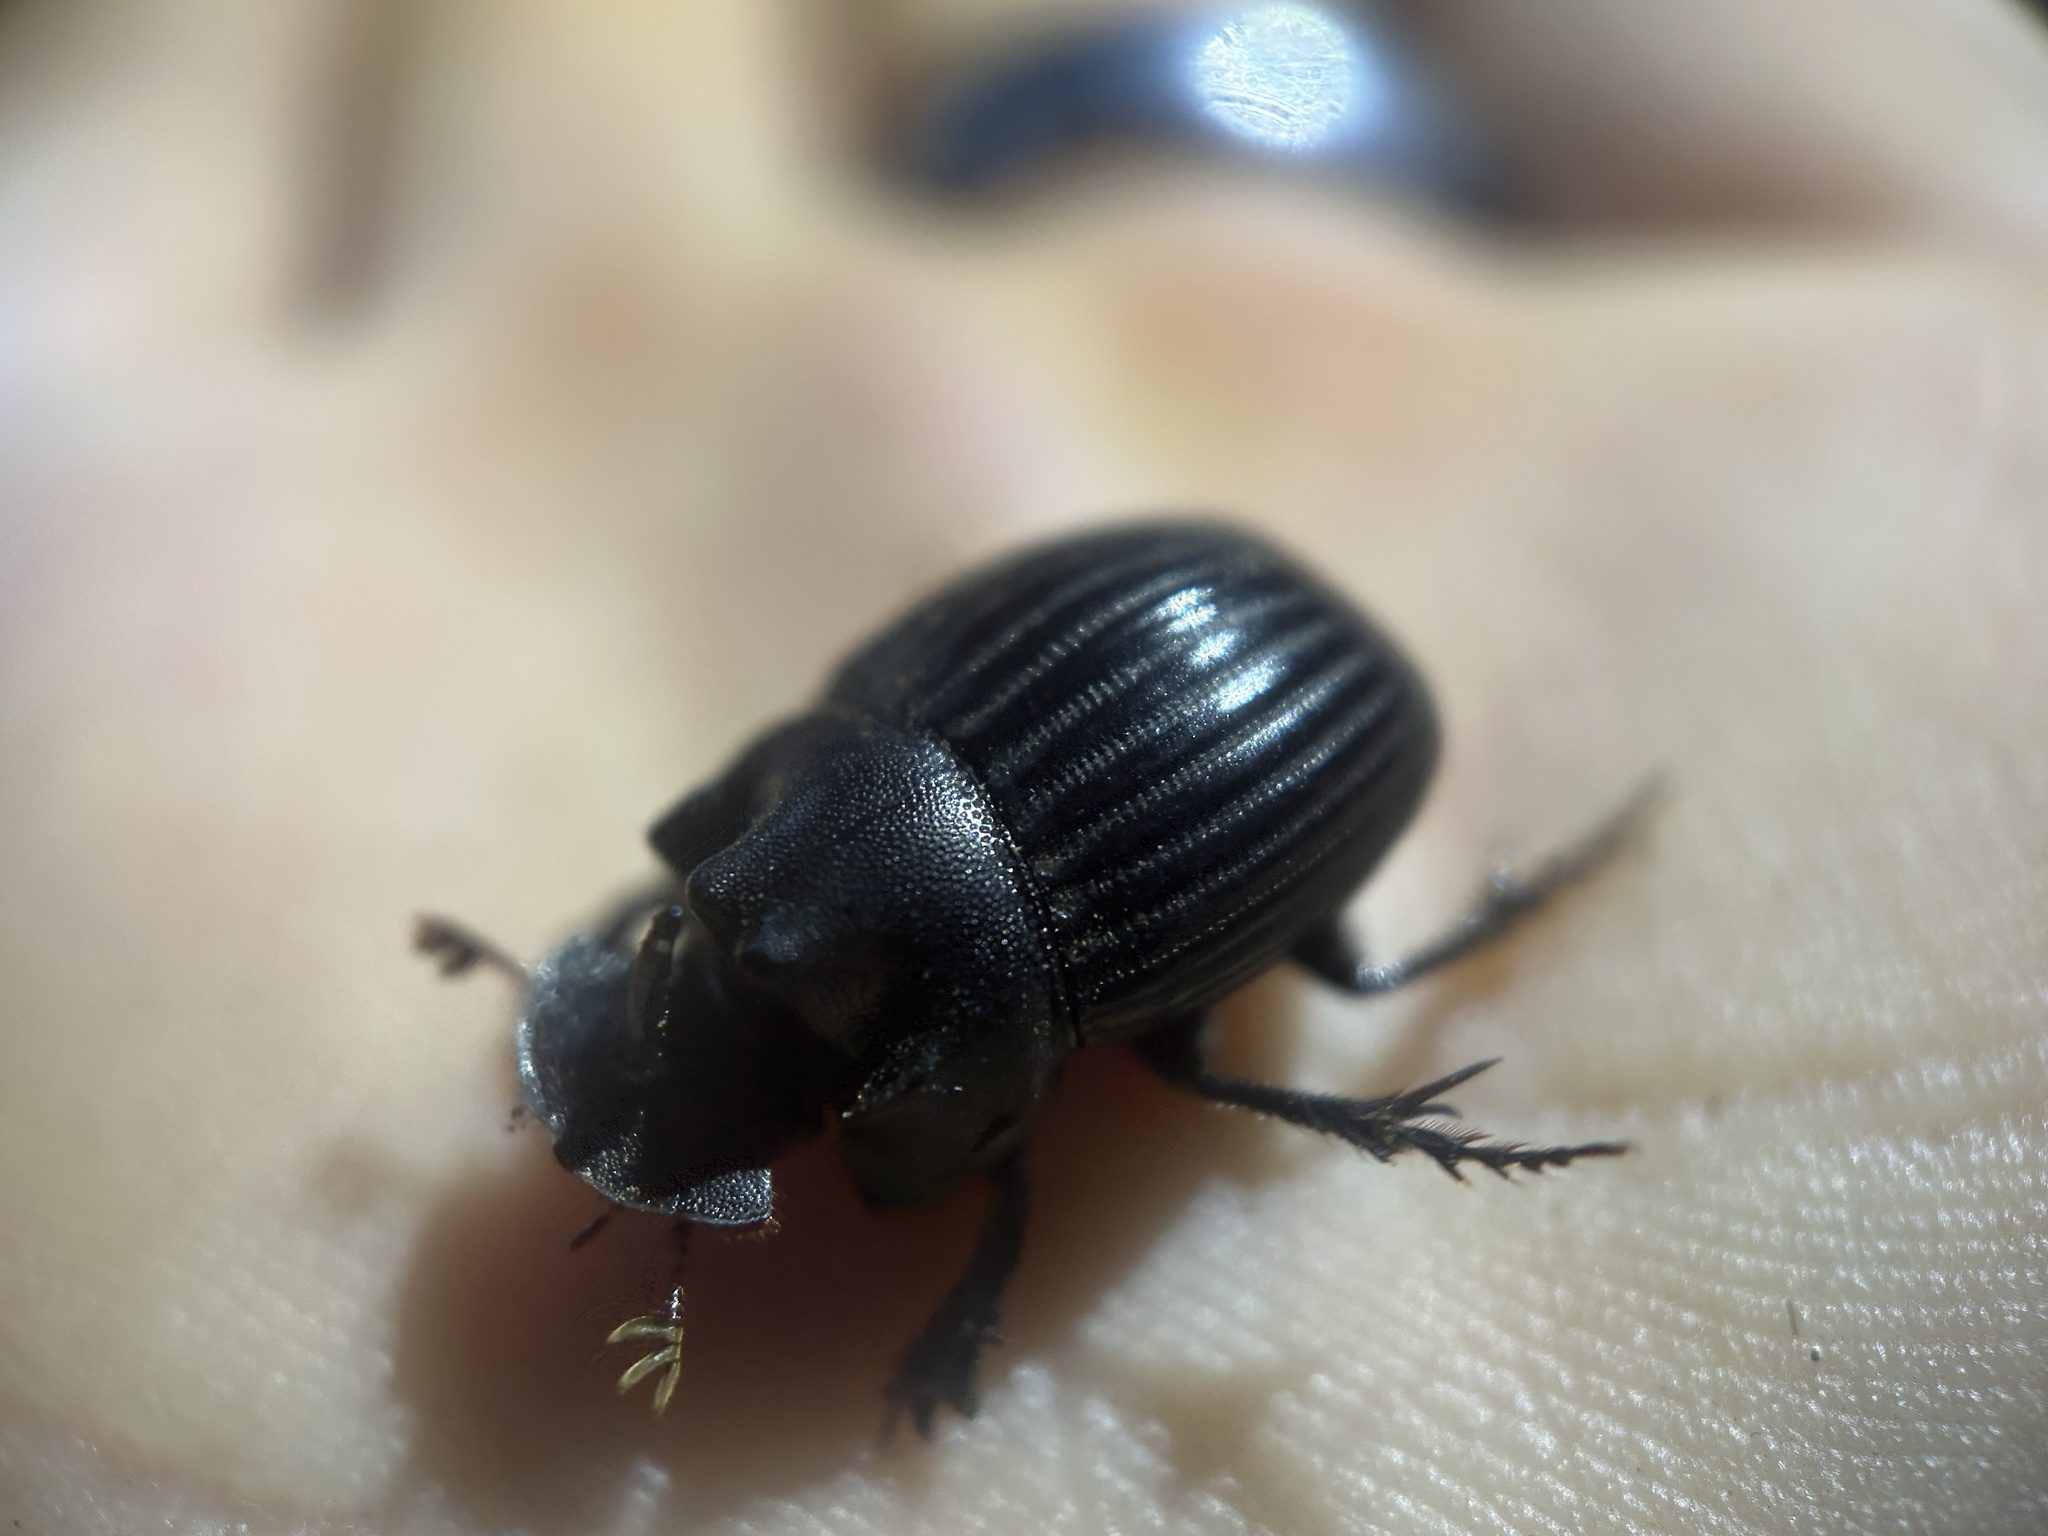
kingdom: Animalia
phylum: Arthropoda
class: Insecta
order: Coleoptera
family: Scarabaeidae
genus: Copris
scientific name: Copris fricator
